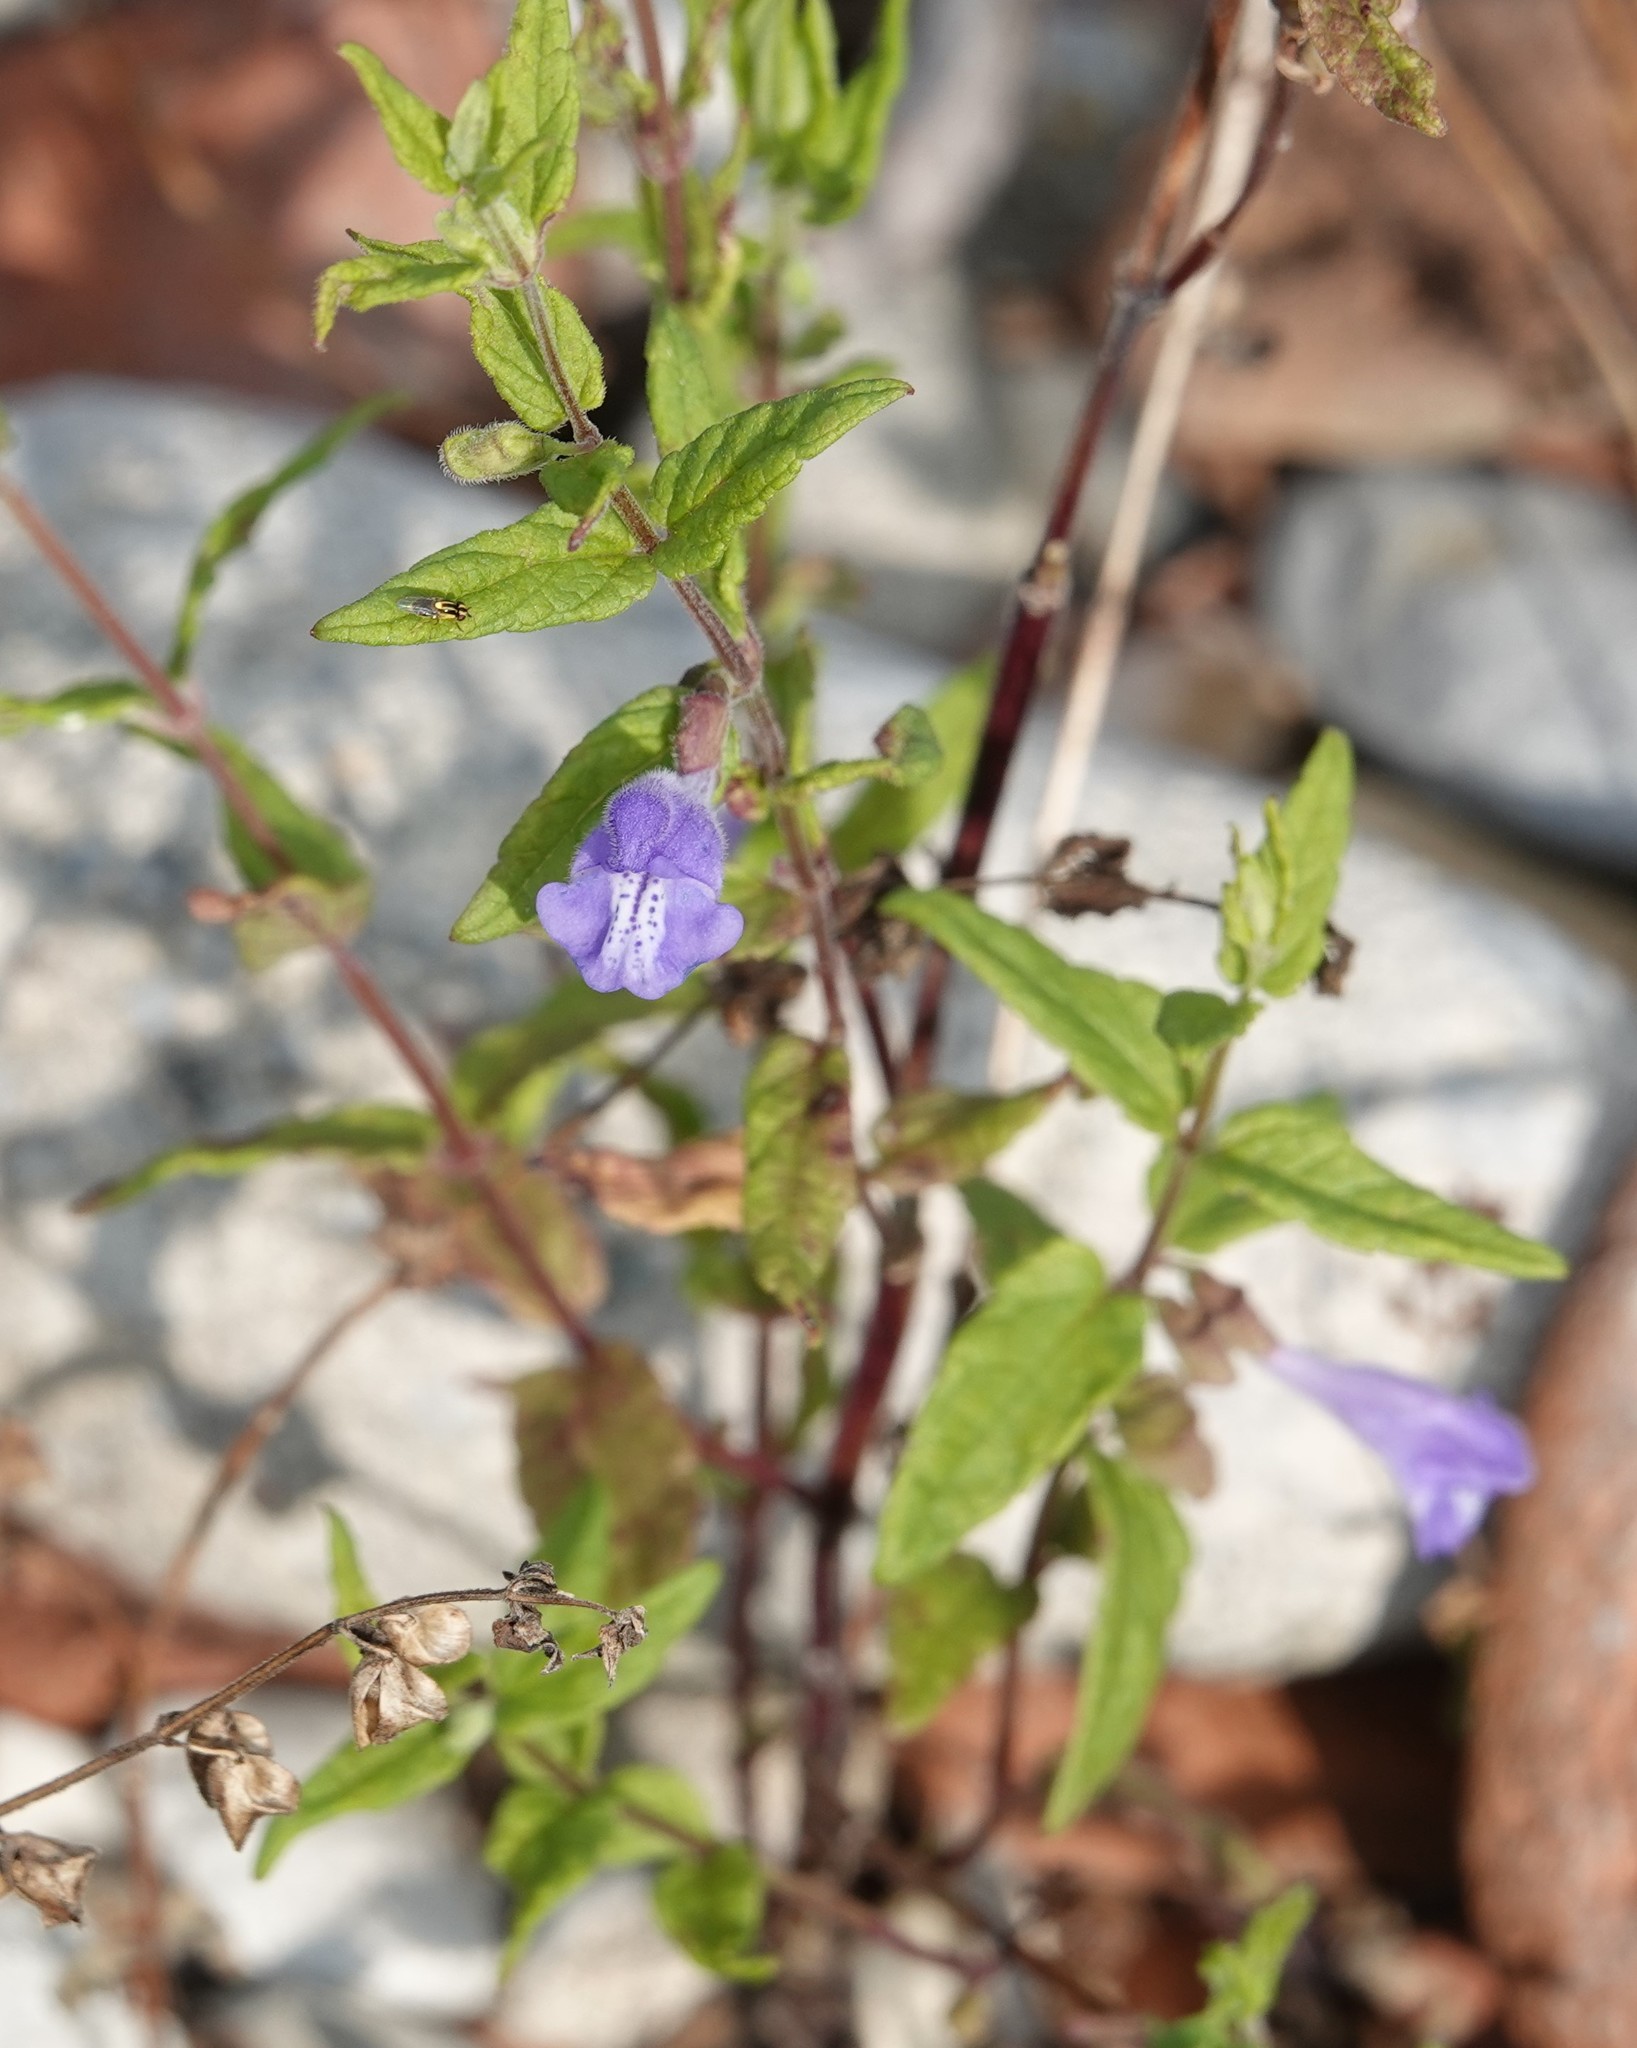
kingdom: Plantae
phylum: Tracheophyta
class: Magnoliopsida
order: Lamiales
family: Lamiaceae
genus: Scutellaria
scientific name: Scutellaria galericulata
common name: Skullcap
